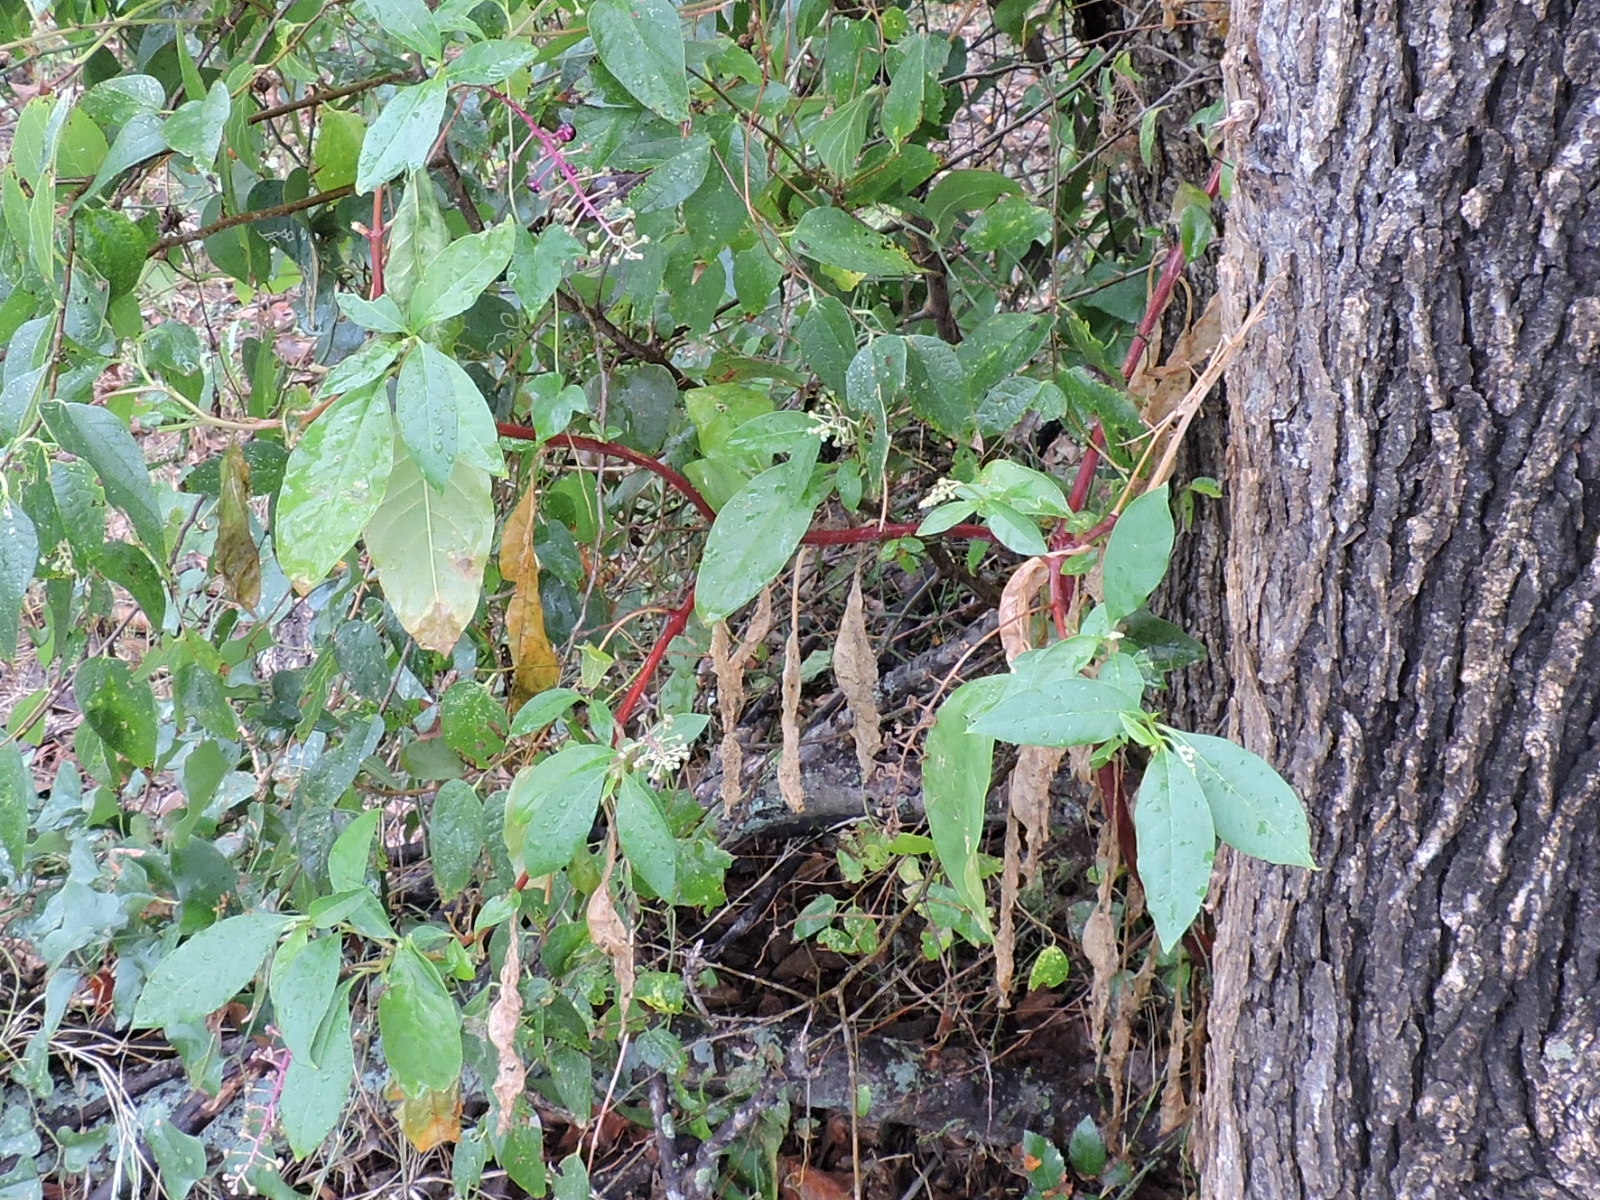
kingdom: Plantae
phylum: Tracheophyta
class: Magnoliopsida
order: Caryophyllales
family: Phytolaccaceae
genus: Phytolacca
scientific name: Phytolacca americana
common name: American pokeweed
